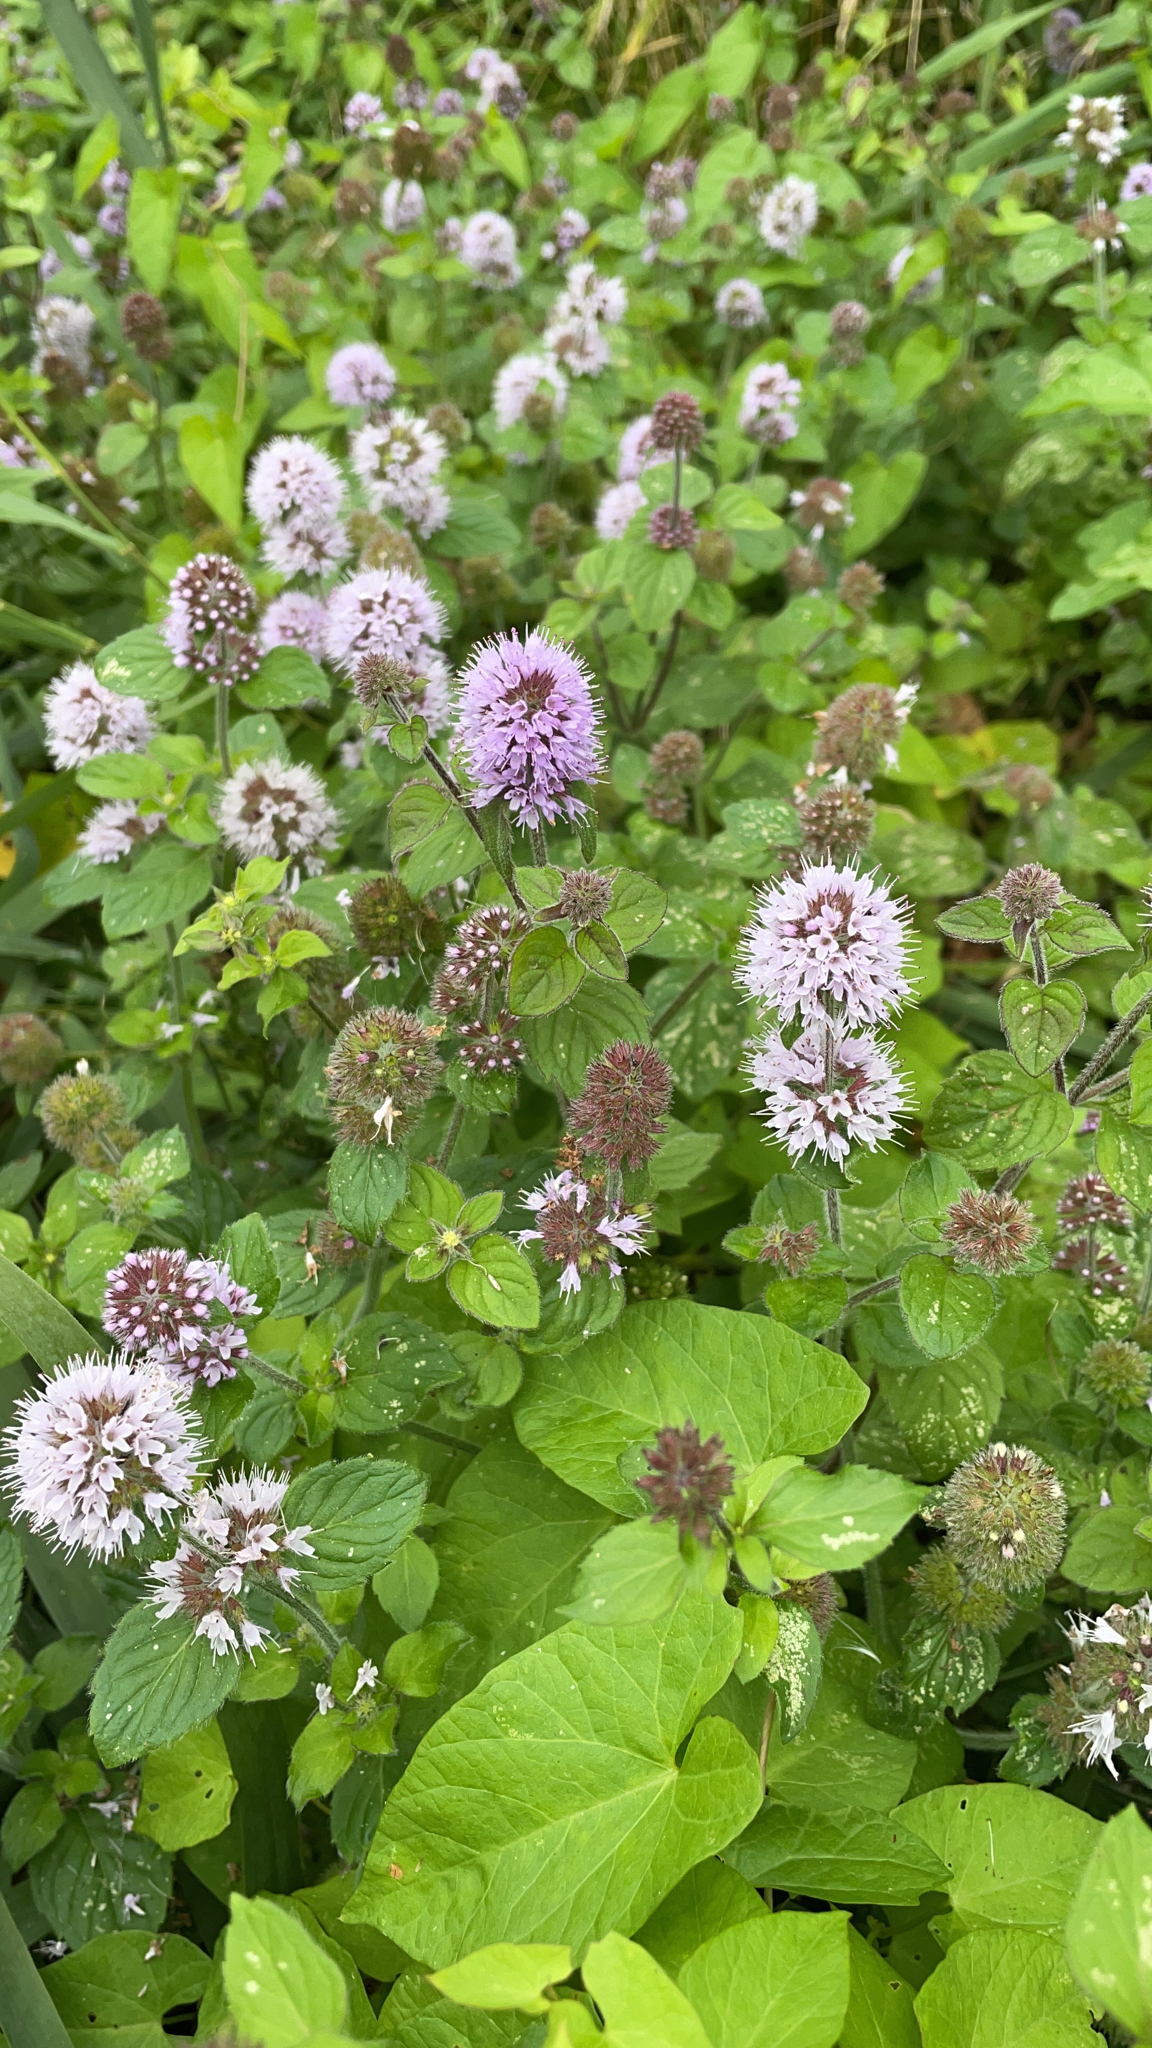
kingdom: Plantae
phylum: Tracheophyta
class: Magnoliopsida
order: Lamiales
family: Lamiaceae
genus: Mentha
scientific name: Mentha aquatica
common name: Water mint
